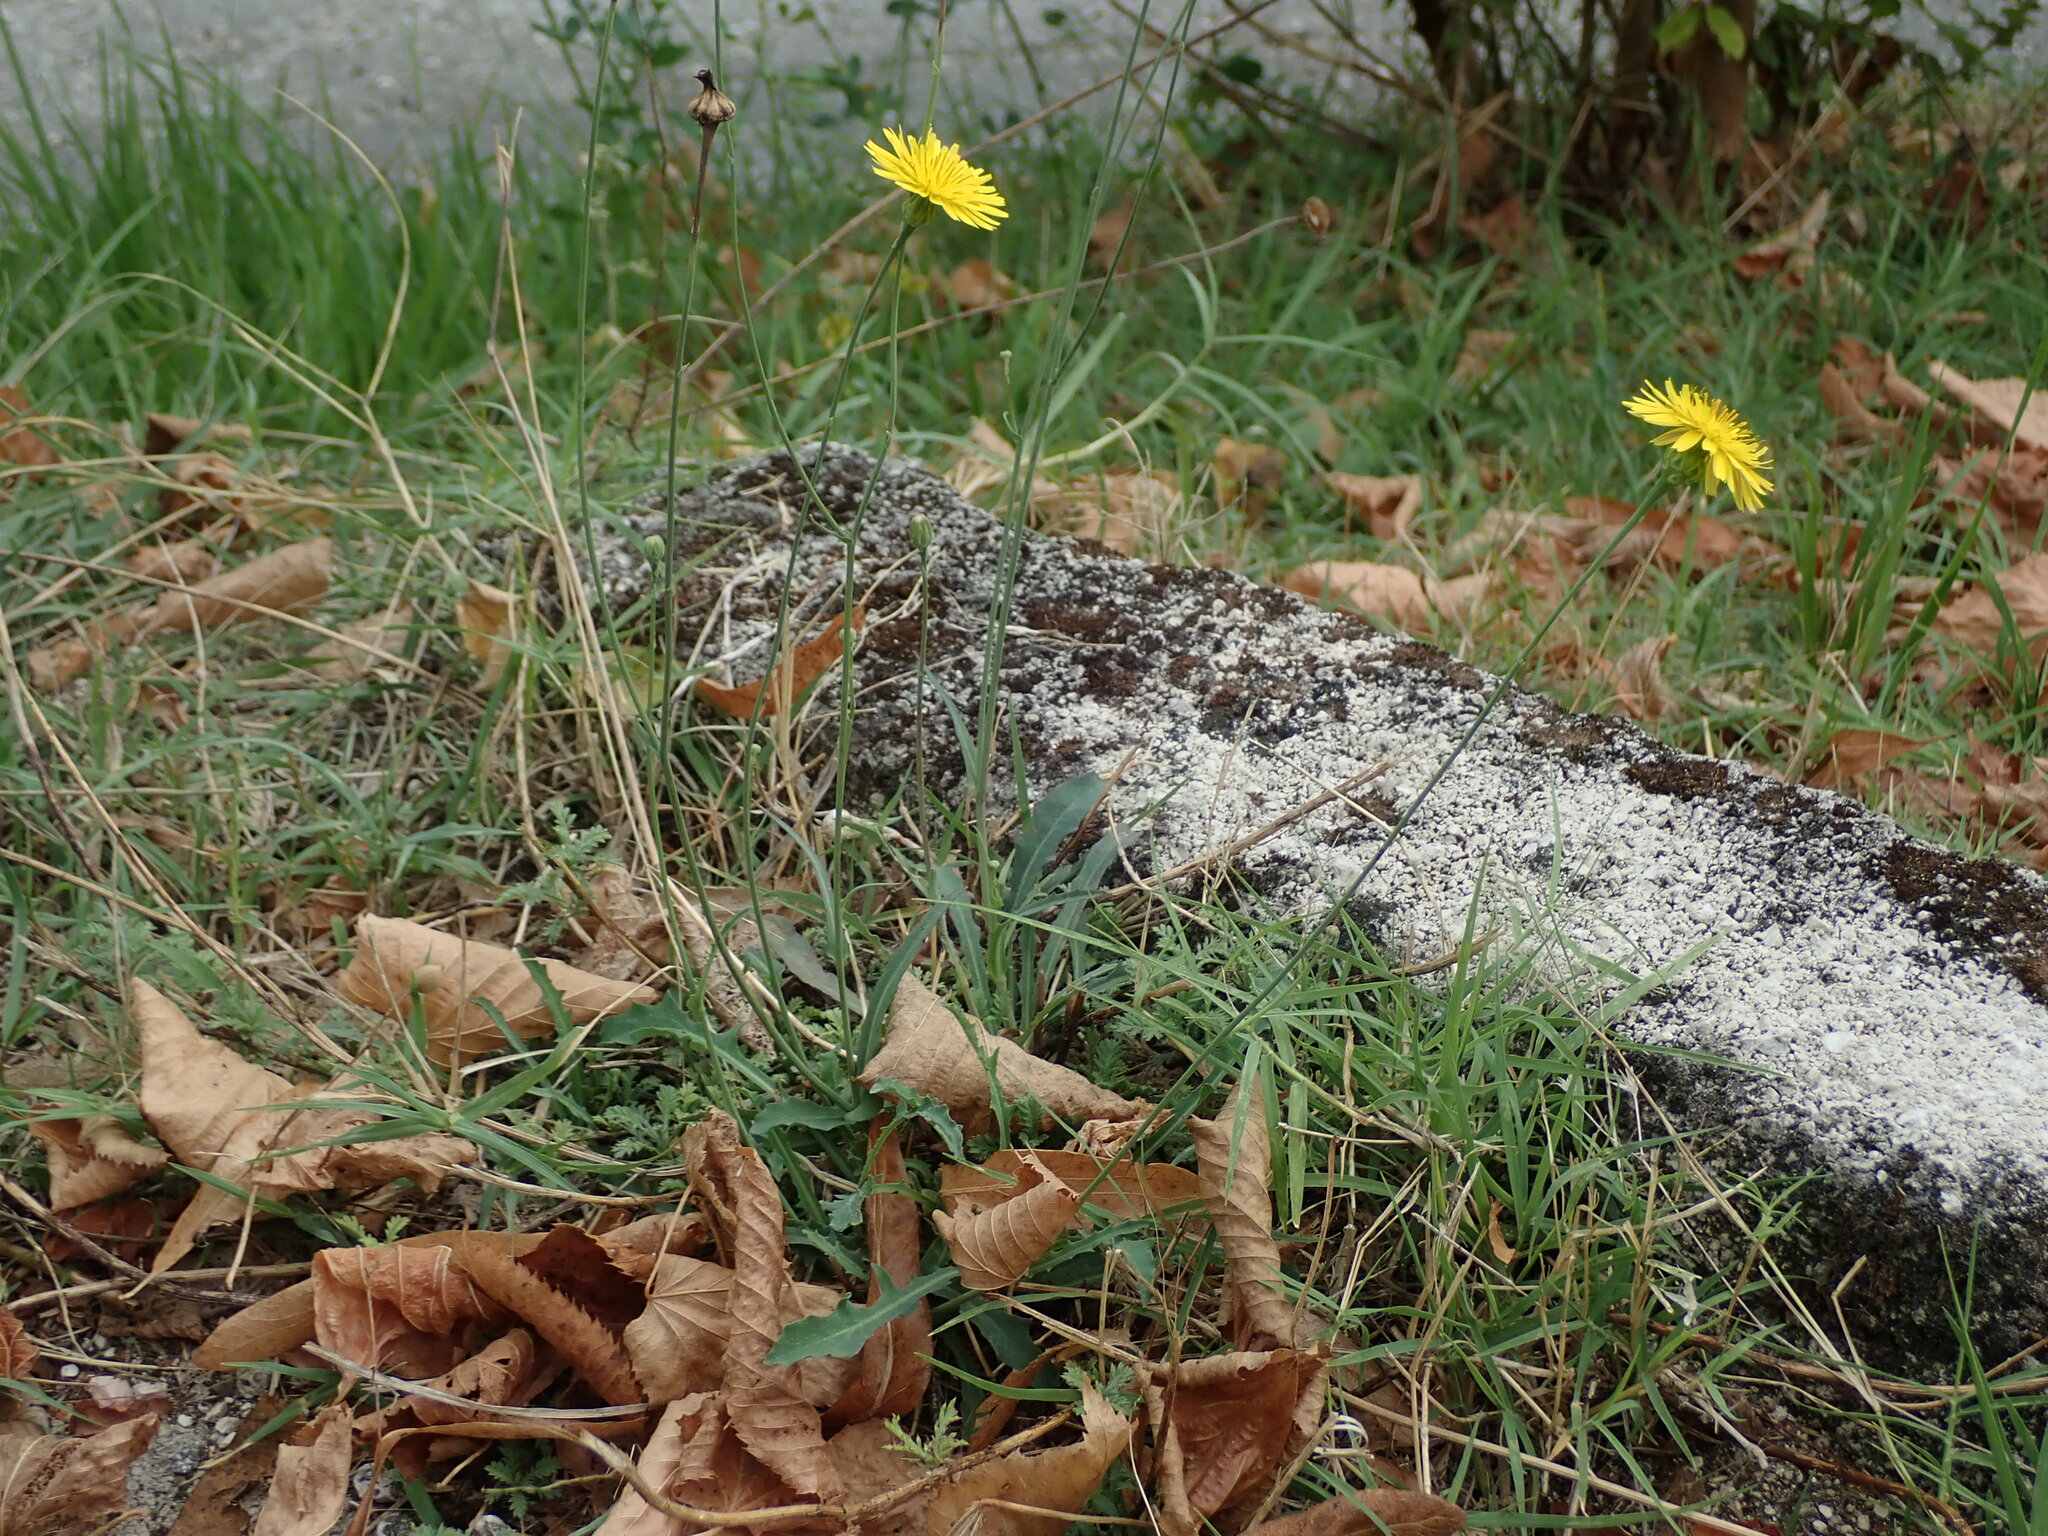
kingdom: Plantae
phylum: Tracheophyta
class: Magnoliopsida
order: Asterales
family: Asteraceae
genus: Reichardia
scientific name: Reichardia picroides
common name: Common brighteyes
